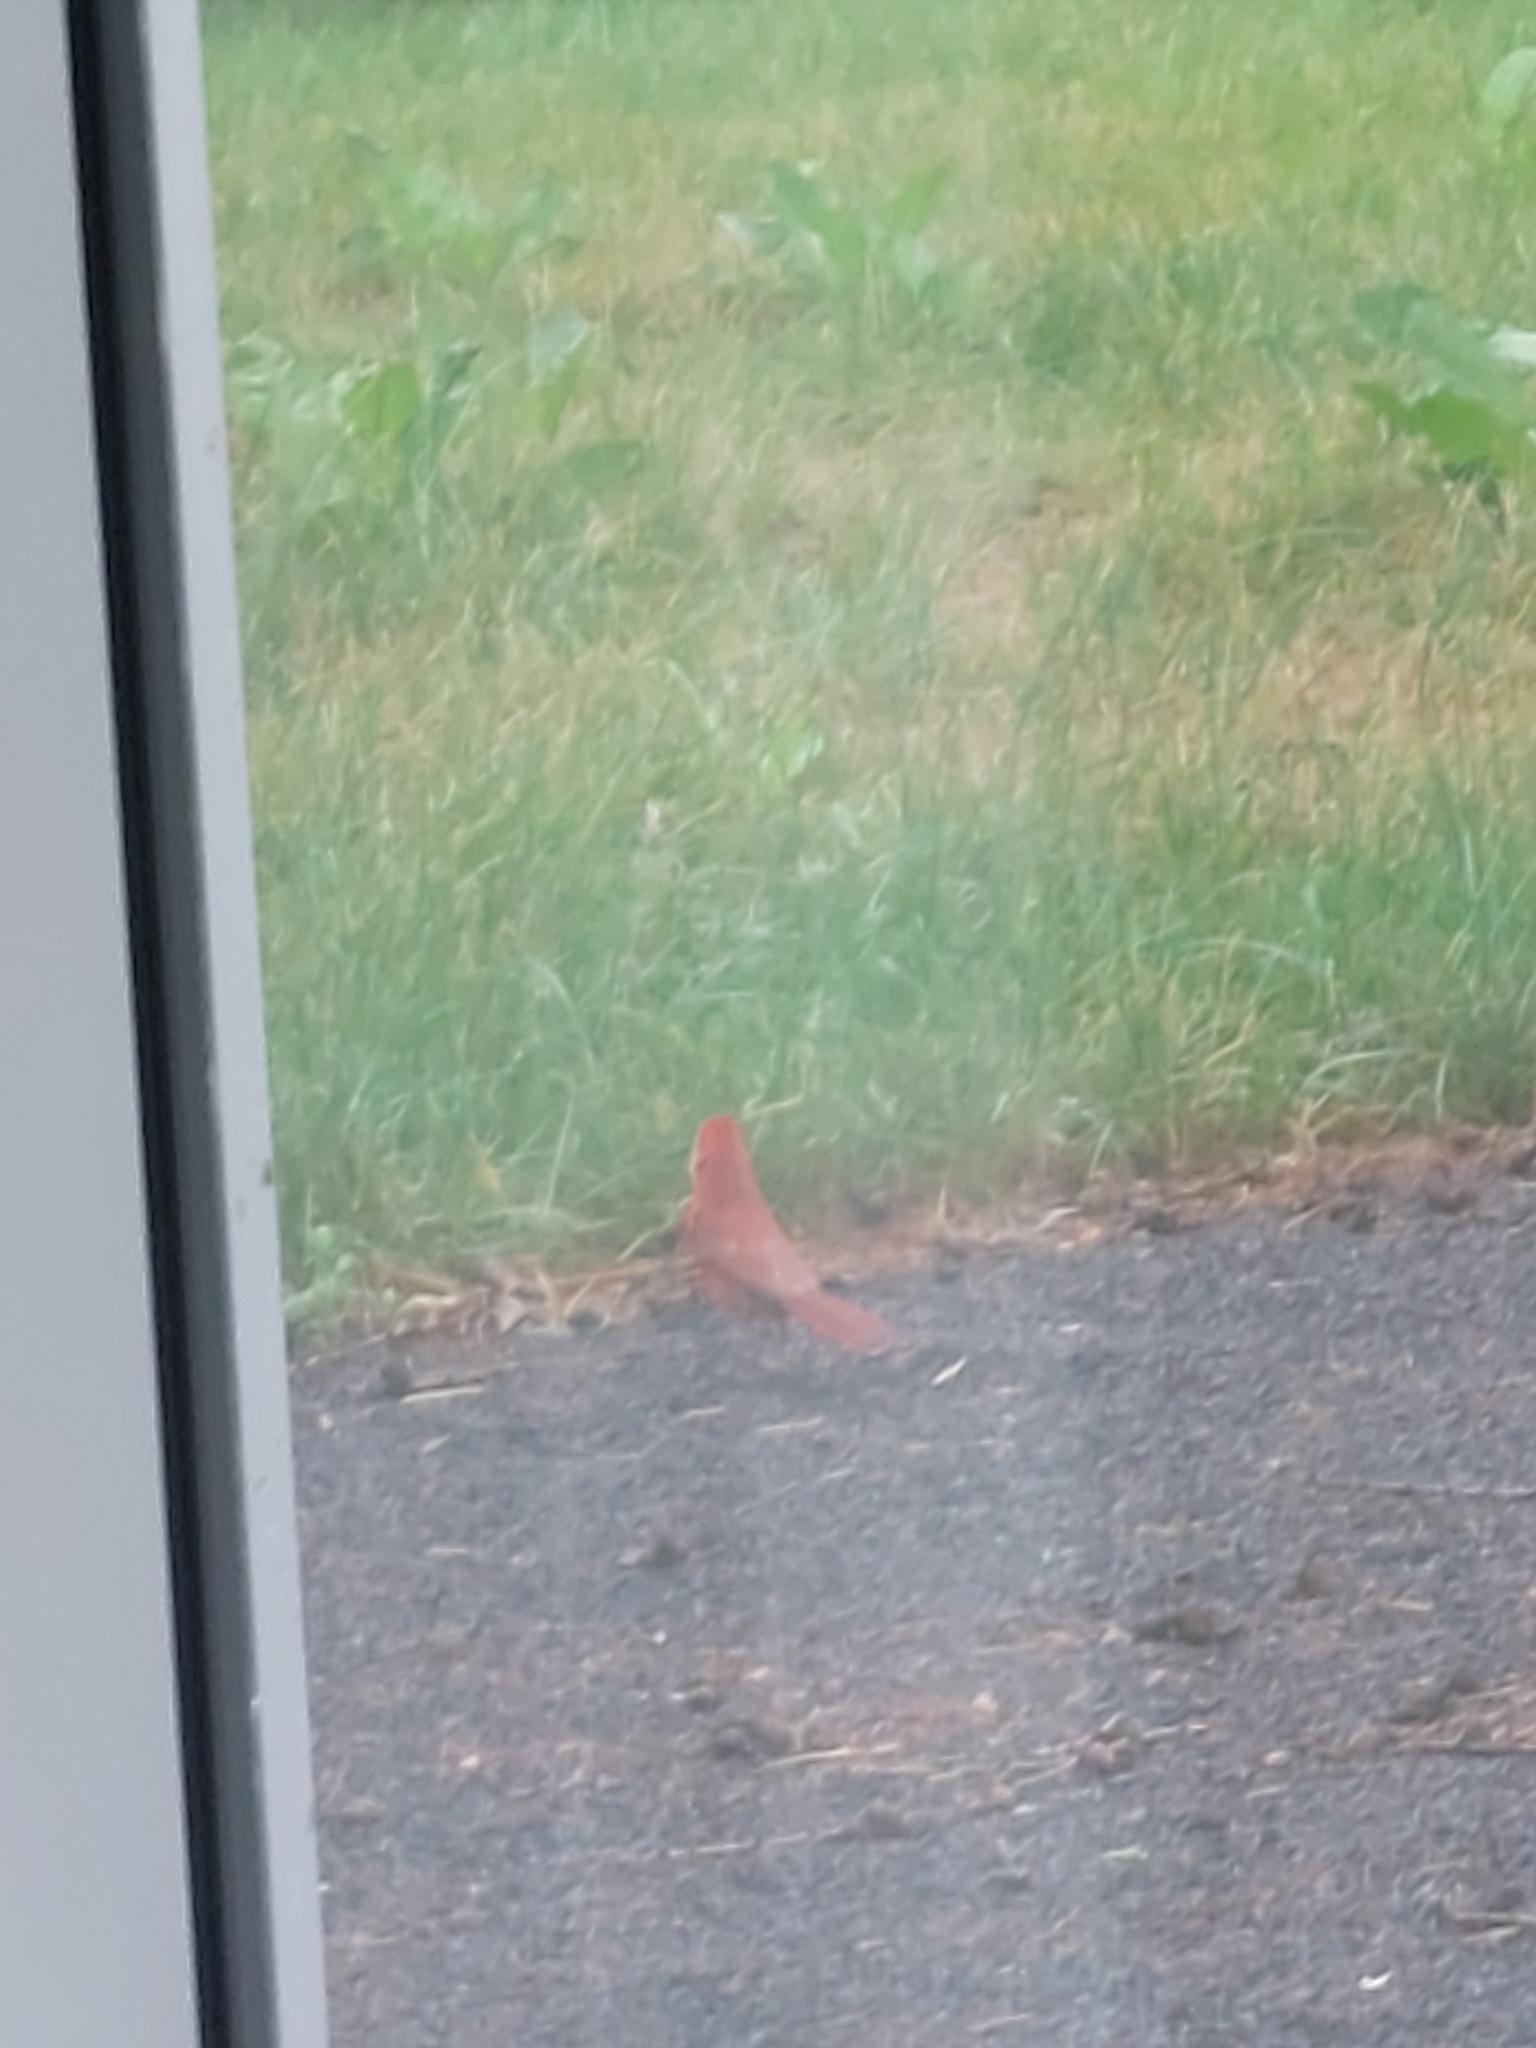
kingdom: Animalia
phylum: Chordata
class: Aves
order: Passeriformes
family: Cardinalidae
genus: Cardinalis
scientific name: Cardinalis cardinalis
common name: Northern cardinal
